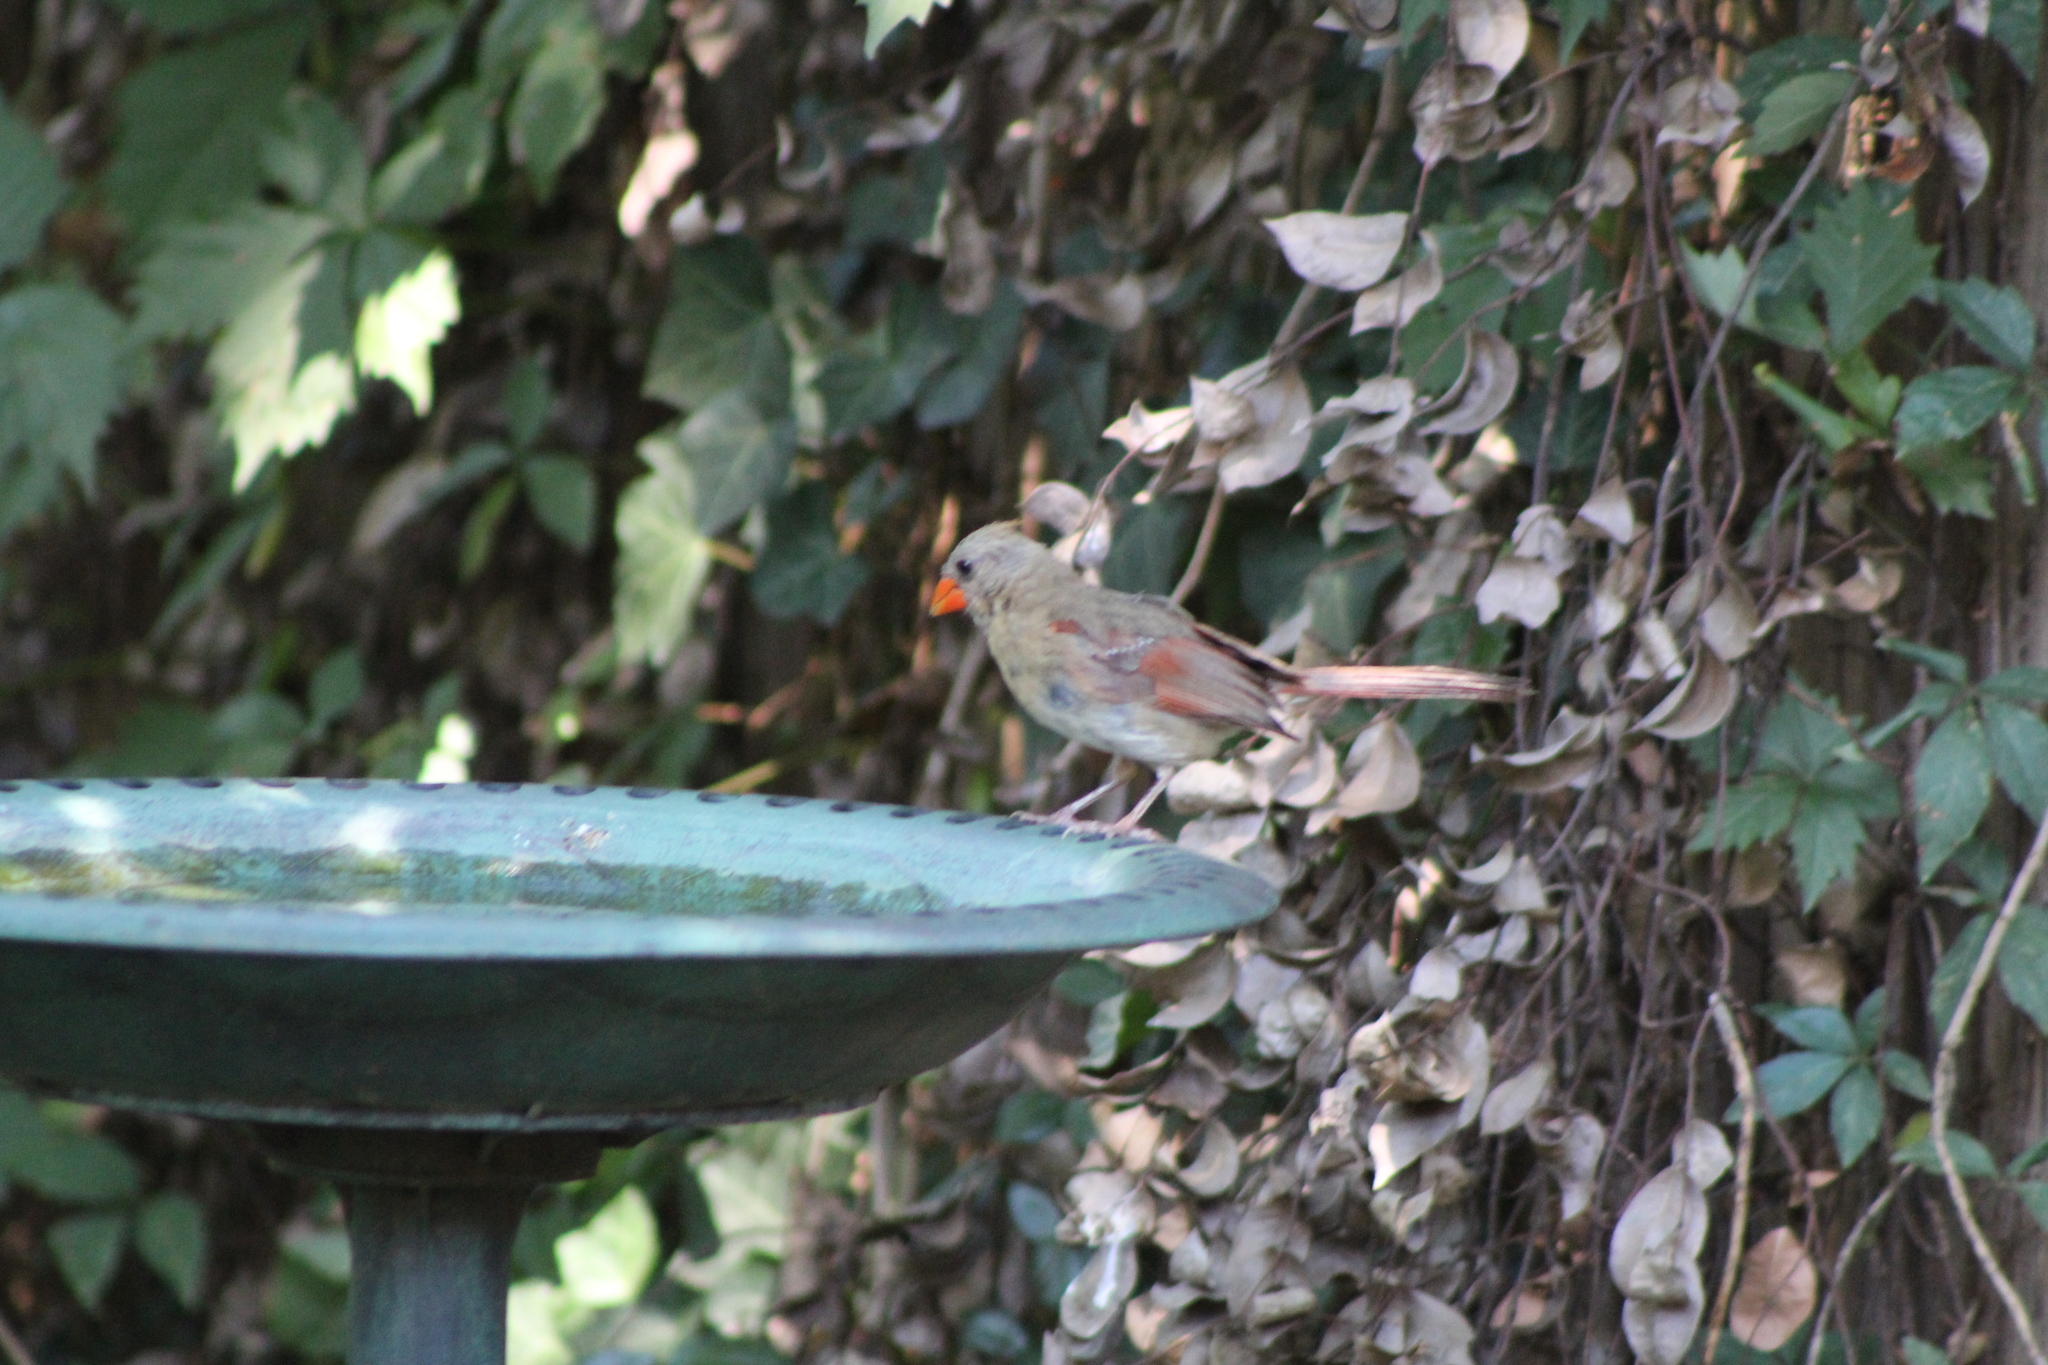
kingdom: Animalia
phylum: Chordata
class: Aves
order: Passeriformes
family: Cardinalidae
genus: Cardinalis
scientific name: Cardinalis cardinalis
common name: Northern cardinal
